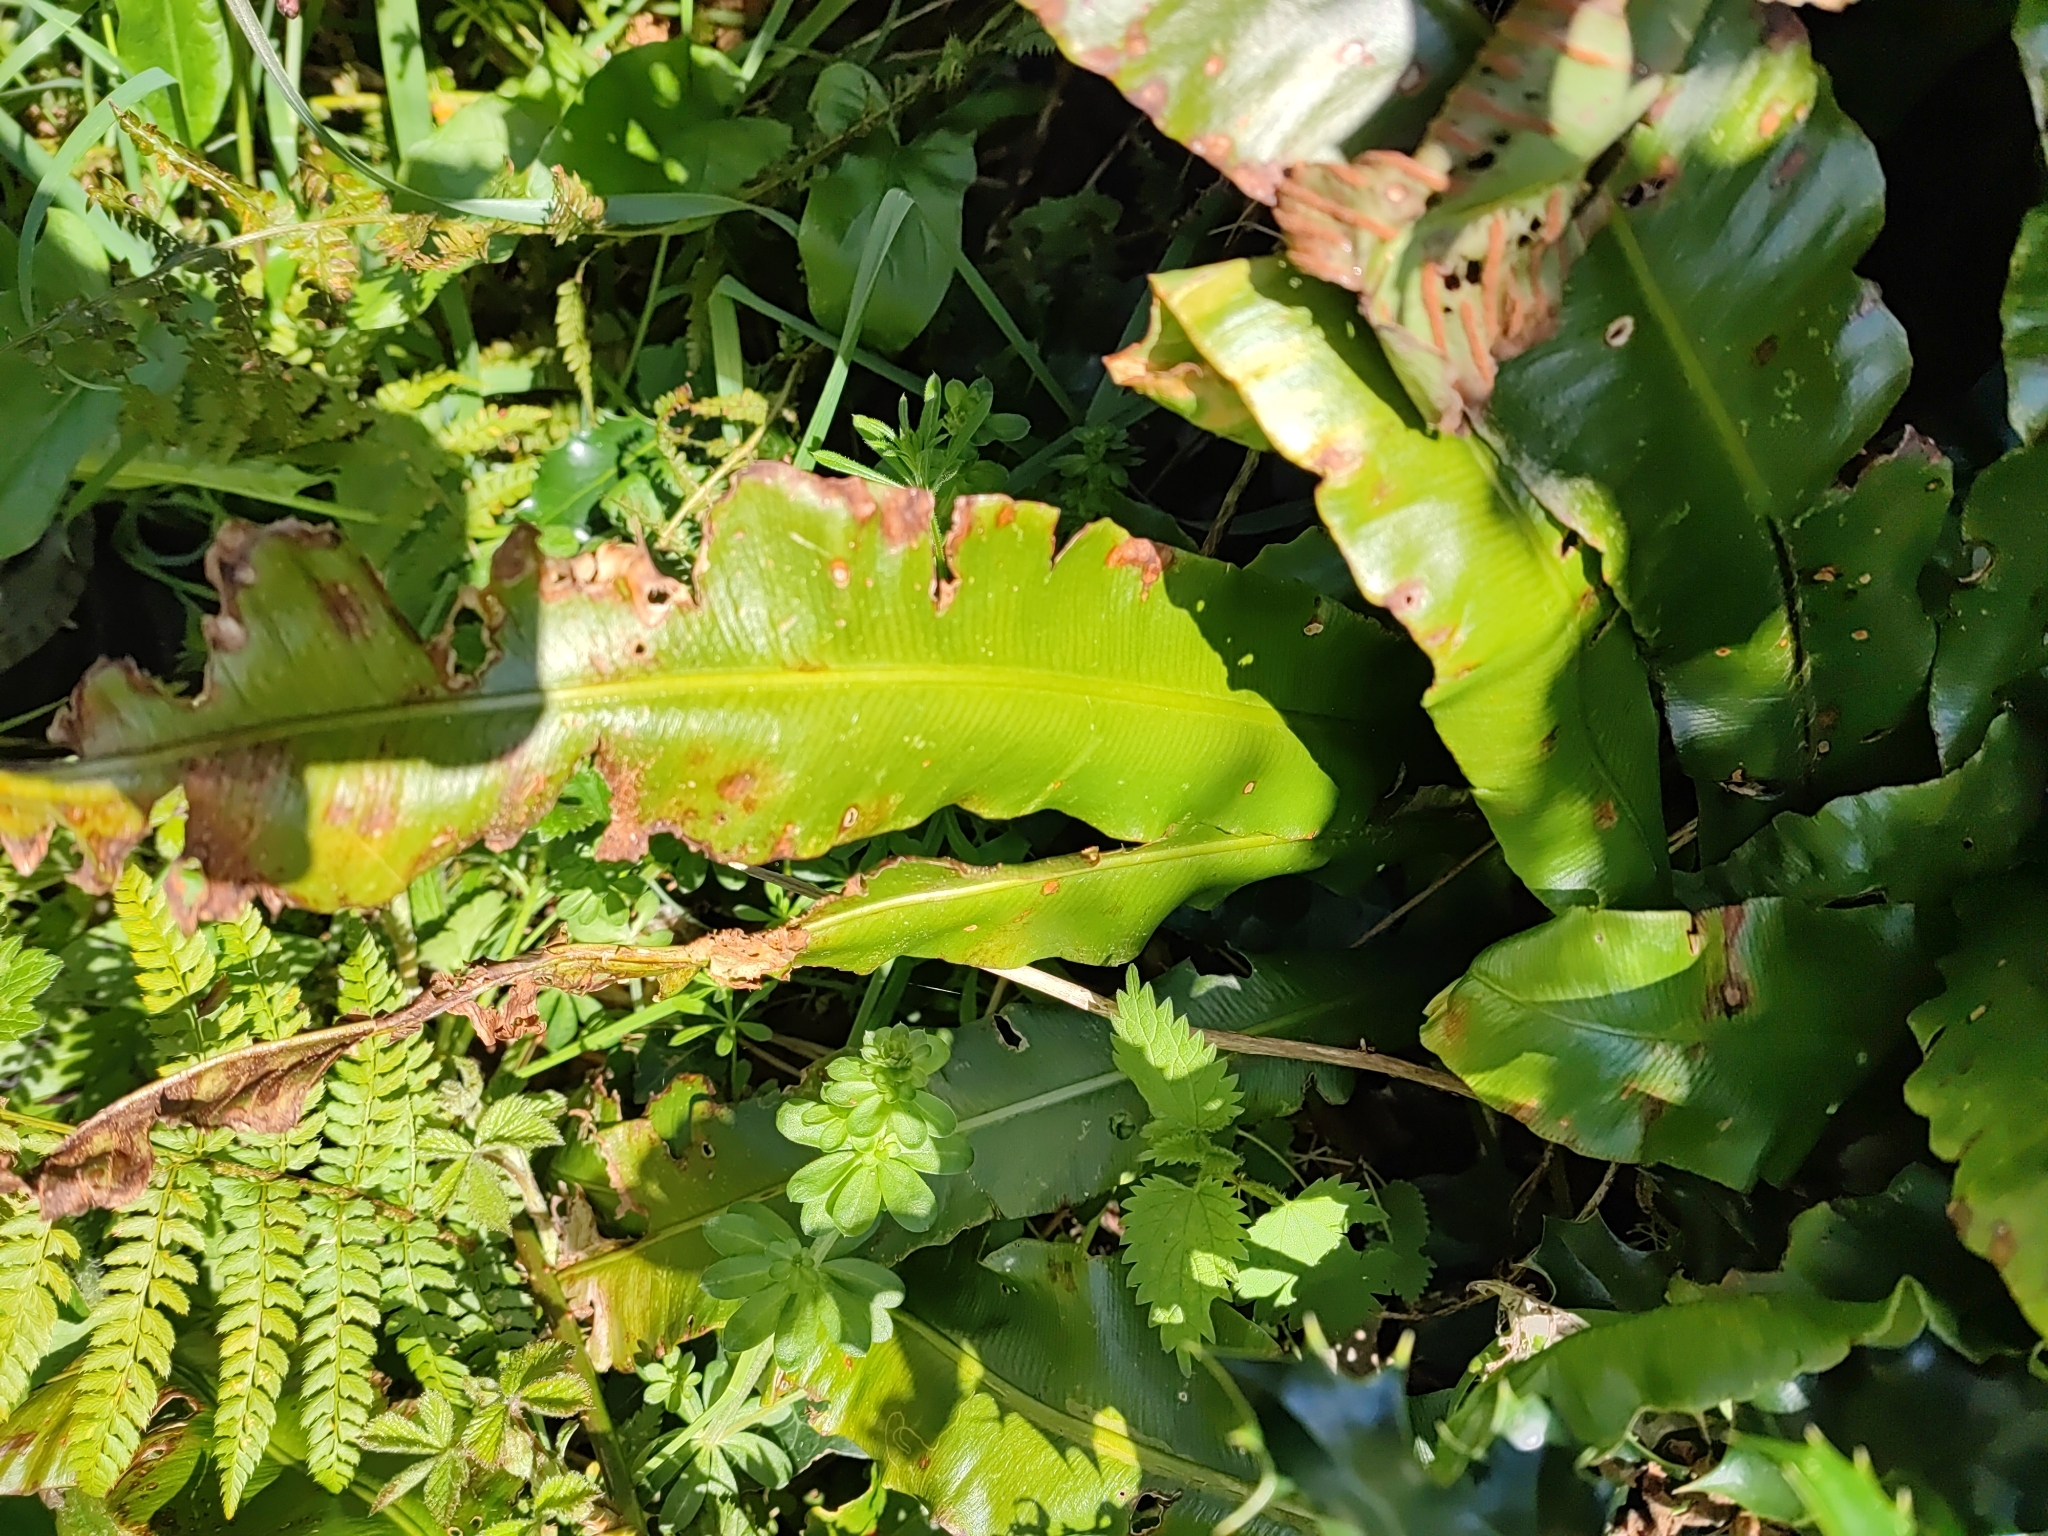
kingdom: Plantae
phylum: Tracheophyta
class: Polypodiopsida
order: Polypodiales
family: Aspleniaceae
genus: Asplenium
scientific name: Asplenium scolopendrium
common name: Hart's-tongue fern
